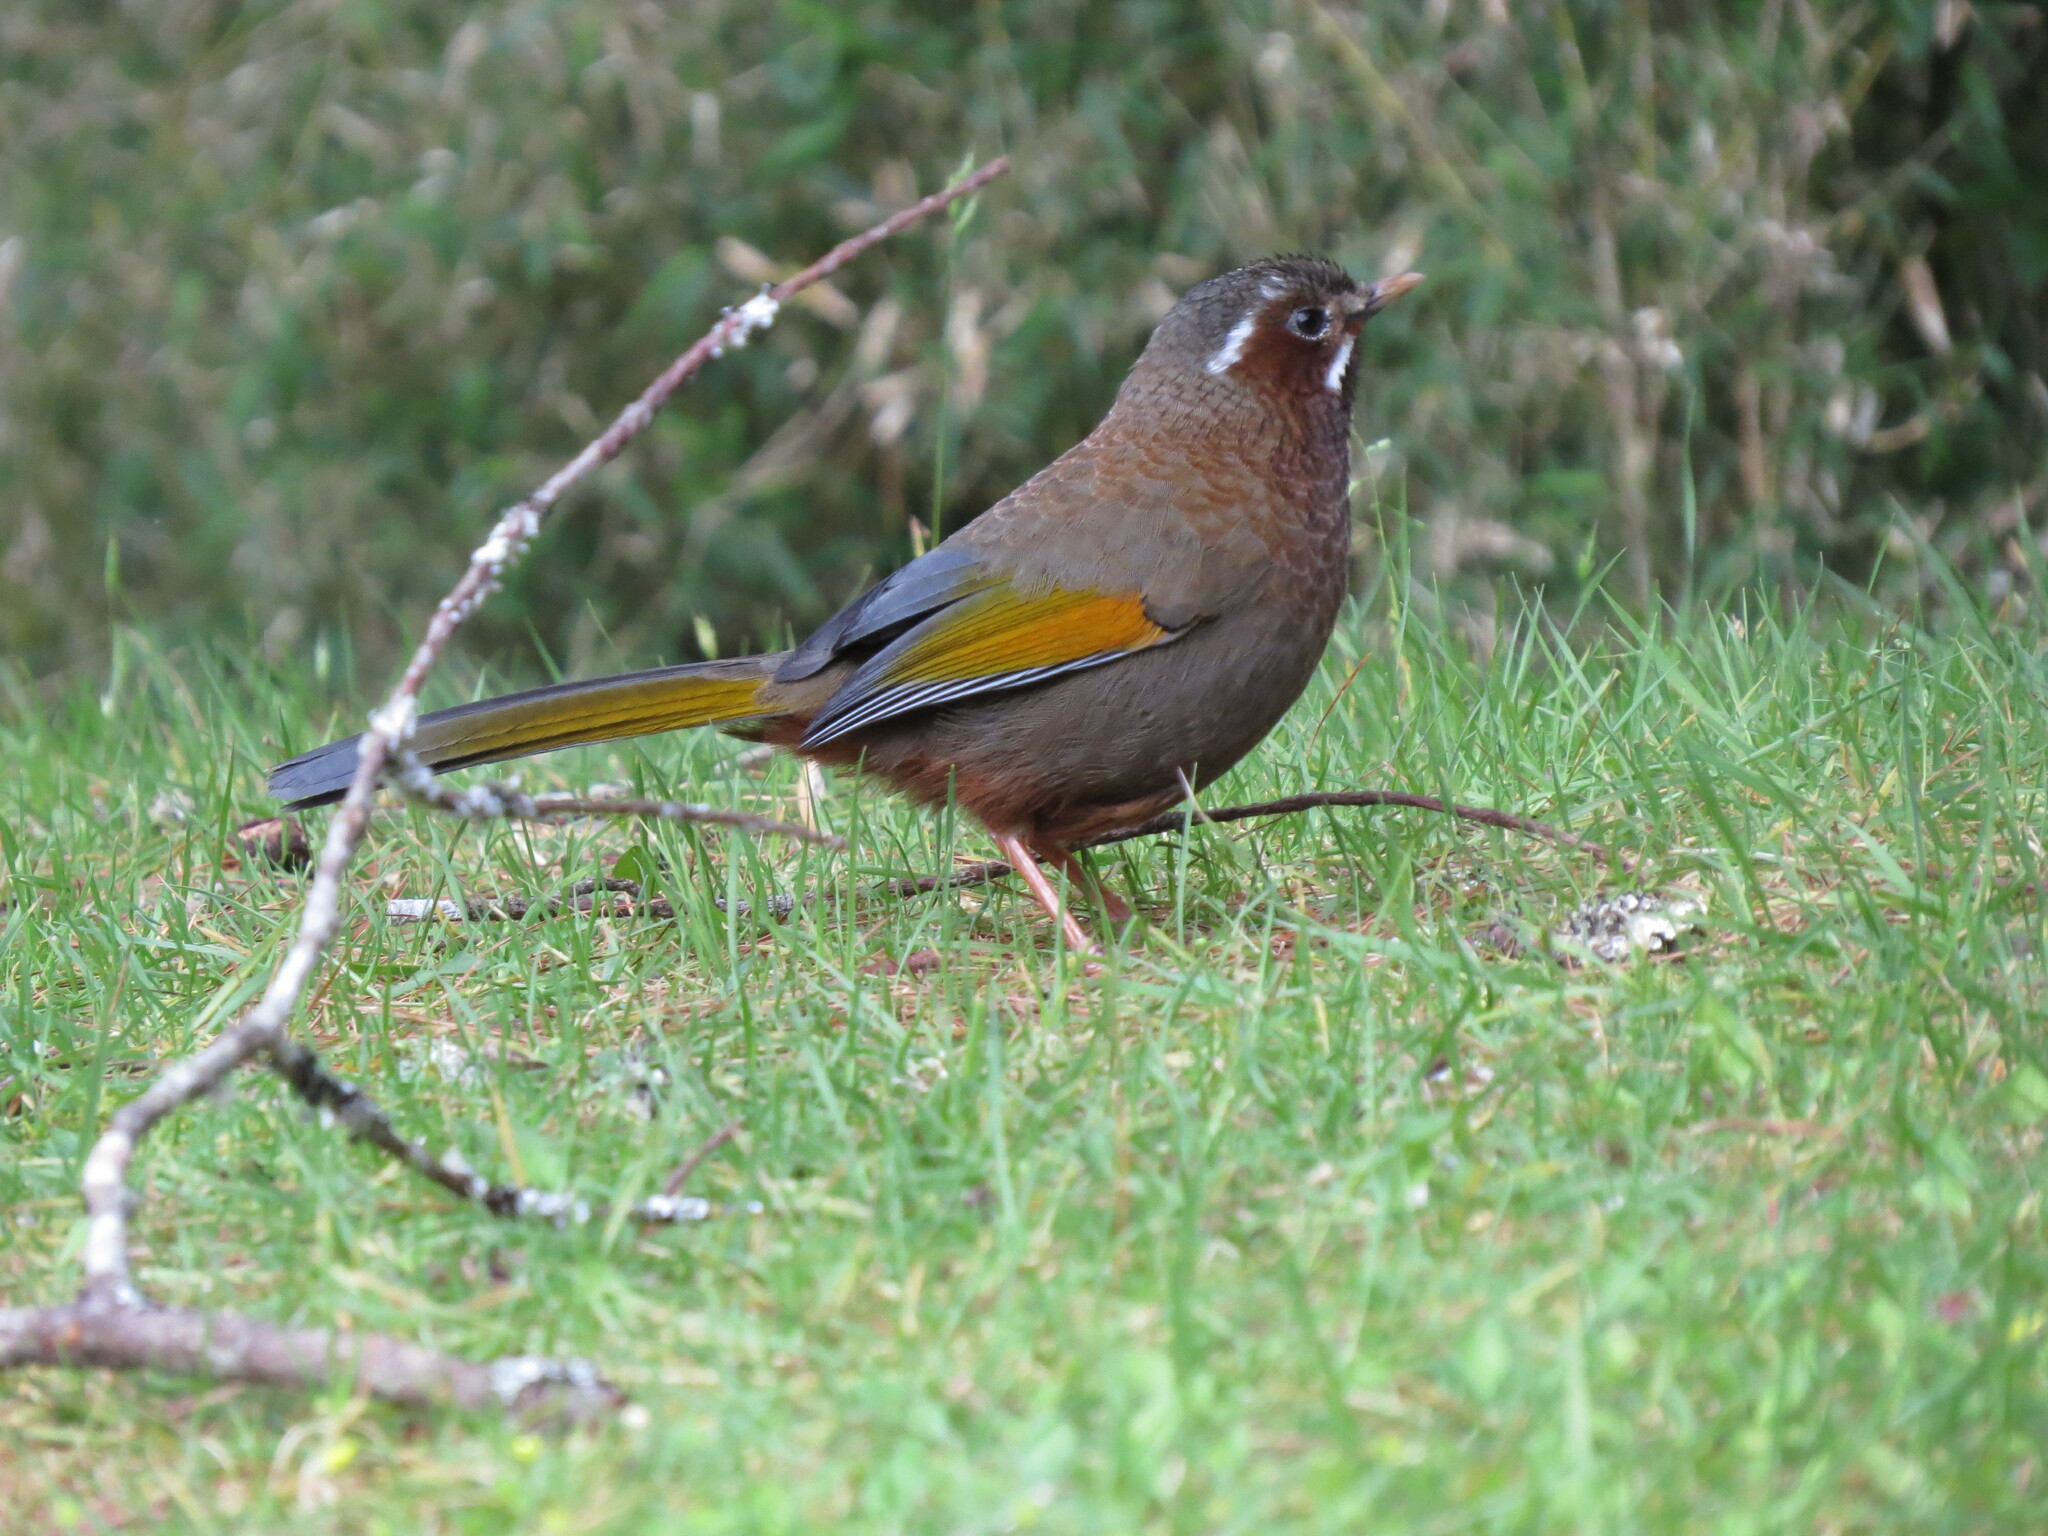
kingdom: Animalia
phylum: Chordata
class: Aves
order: Passeriformes
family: Leiothrichidae
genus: Trochalopteron
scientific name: Trochalopteron morrisonianum
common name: White-whiskered laughingthrush
